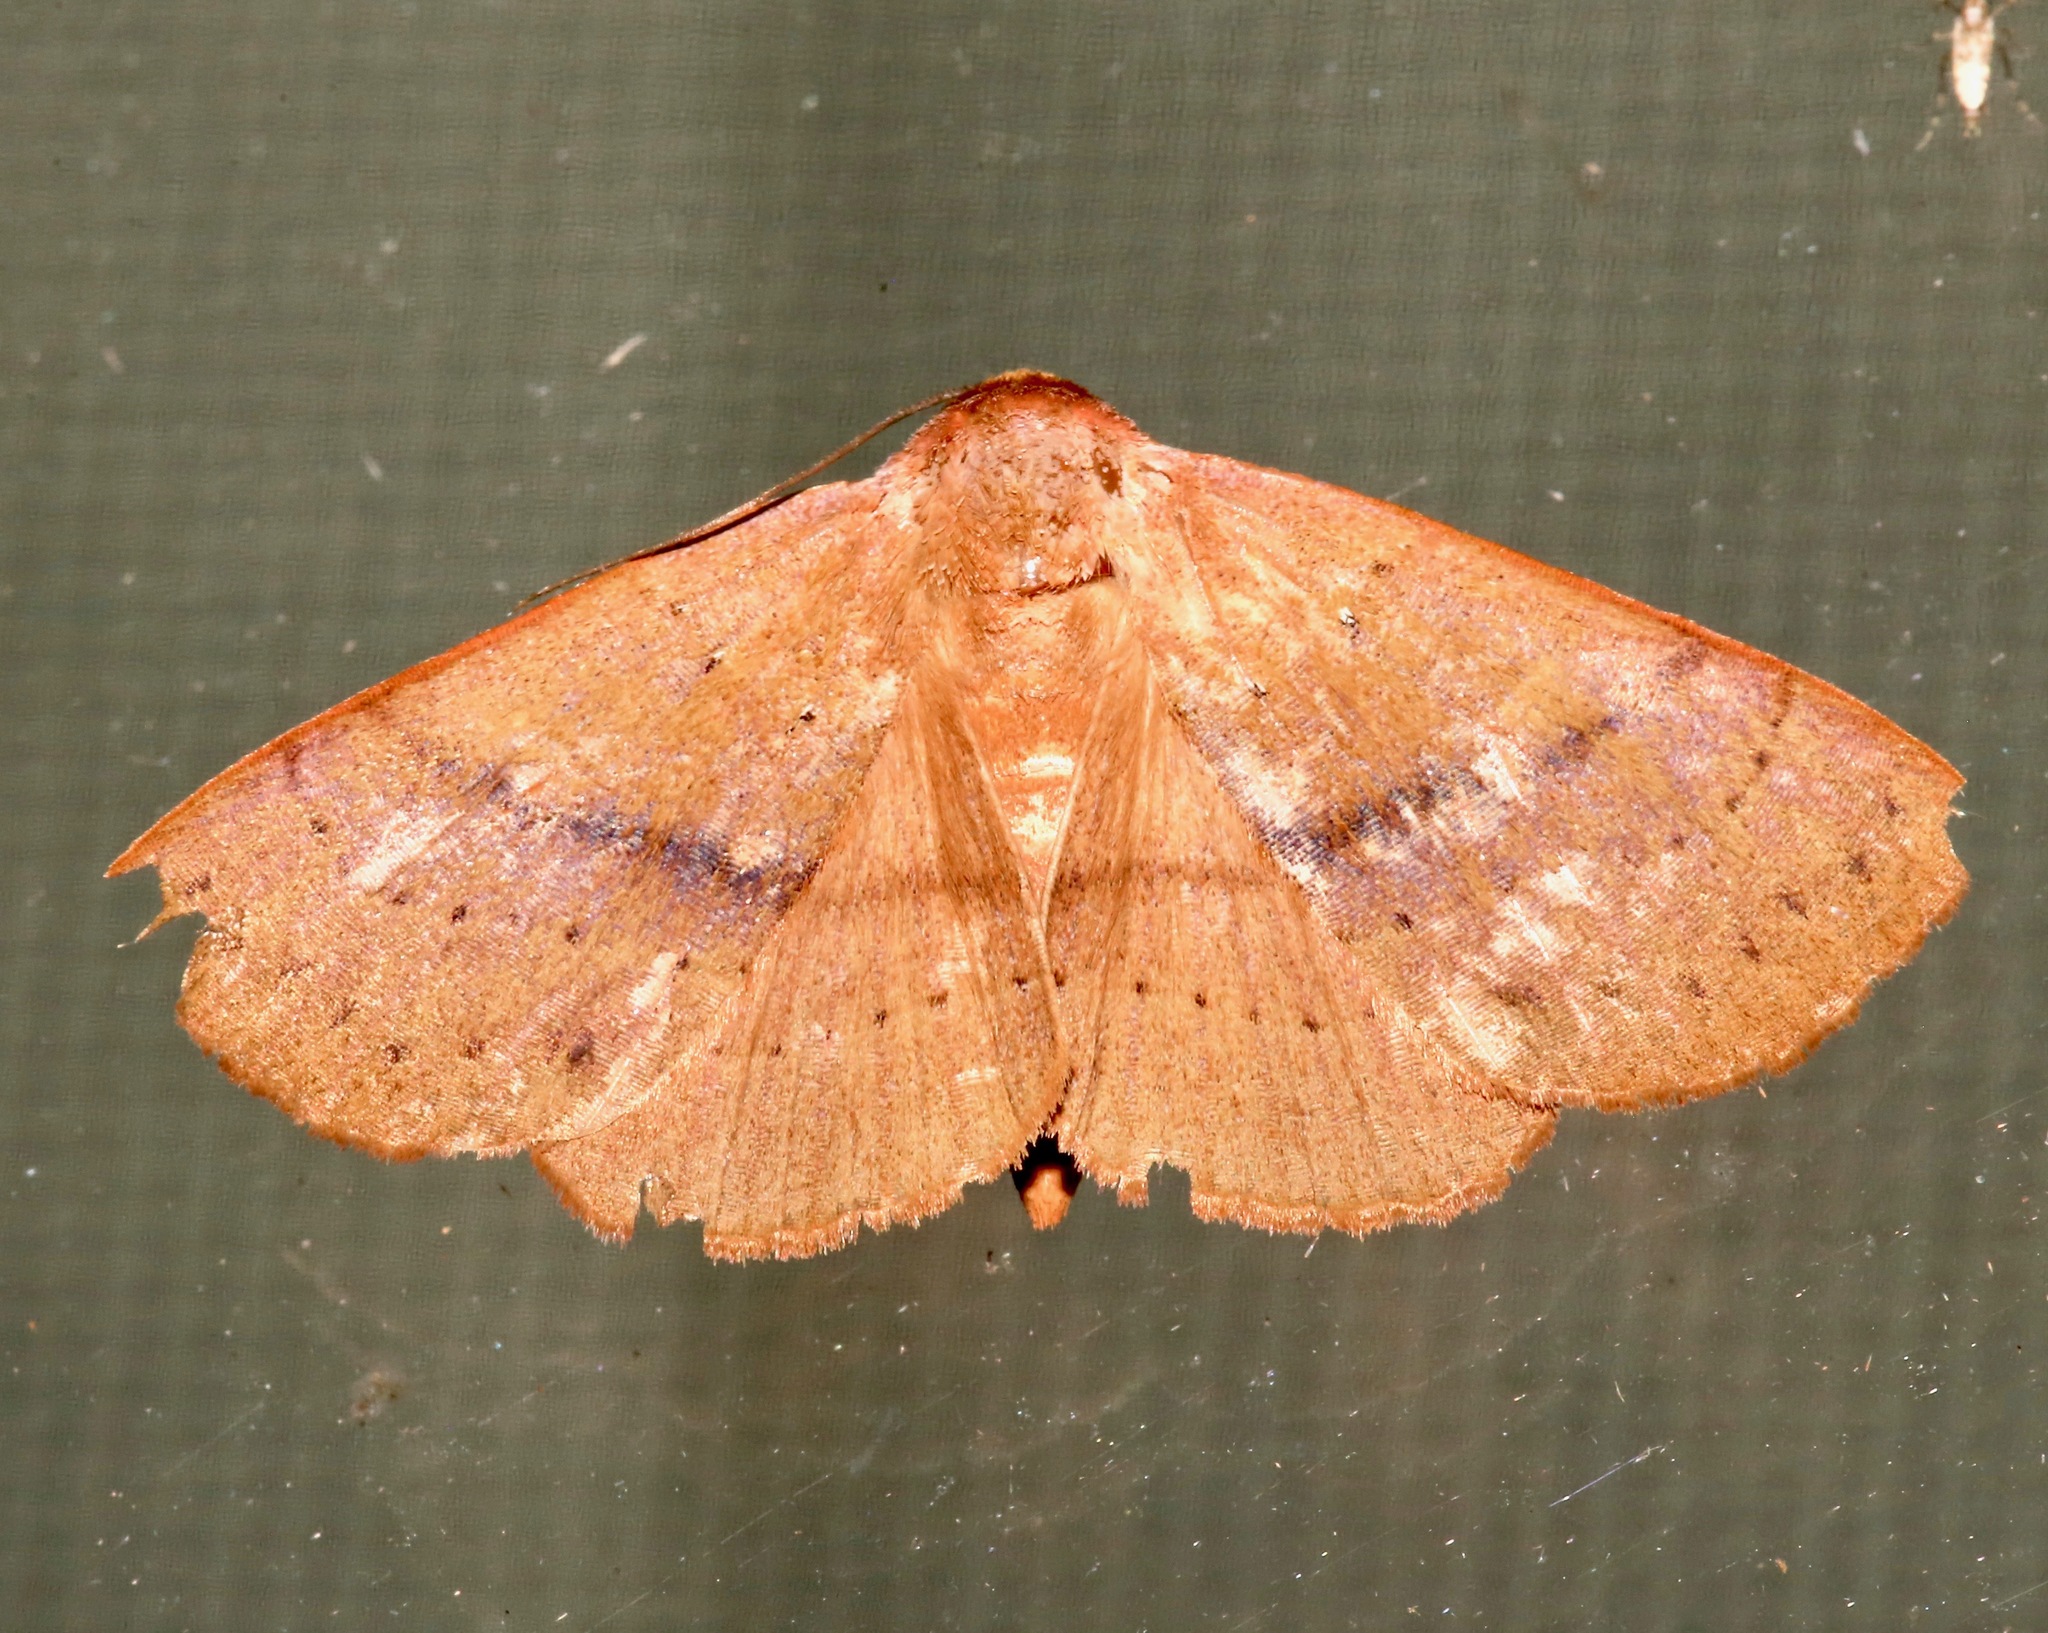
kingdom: Animalia
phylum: Arthropoda
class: Insecta
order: Lepidoptera
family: Erebidae
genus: Panopoda
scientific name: Panopoda repanda
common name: Orange panopoda
